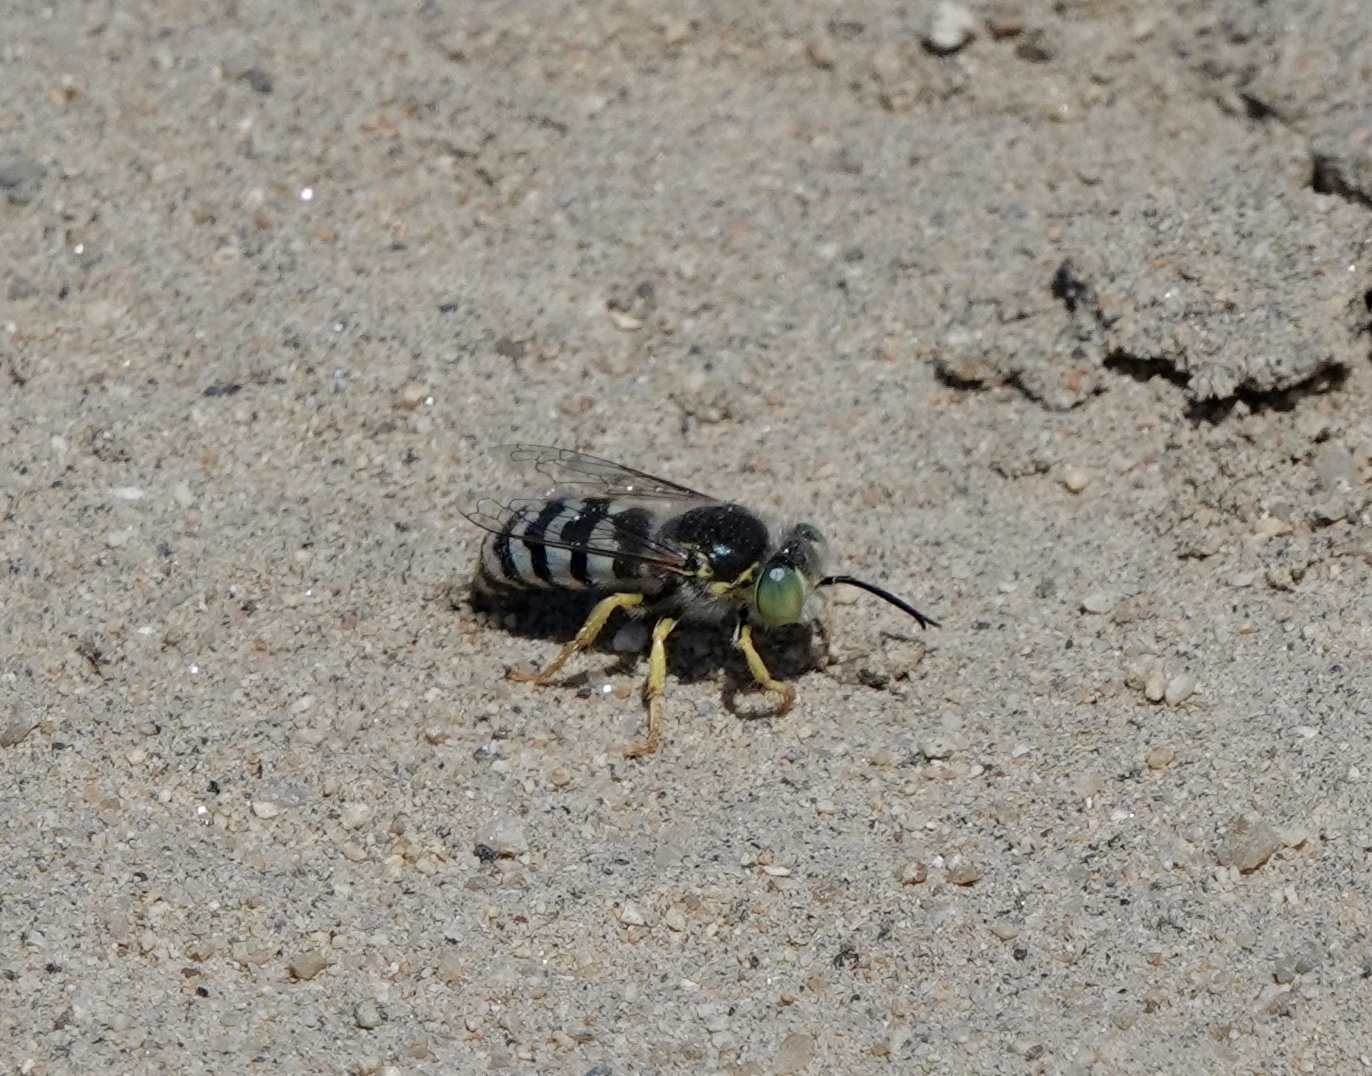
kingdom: Animalia
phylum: Arthropoda
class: Insecta
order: Hymenoptera
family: Crabronidae
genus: Bembix
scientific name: Bembix americana
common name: American sand wasp
